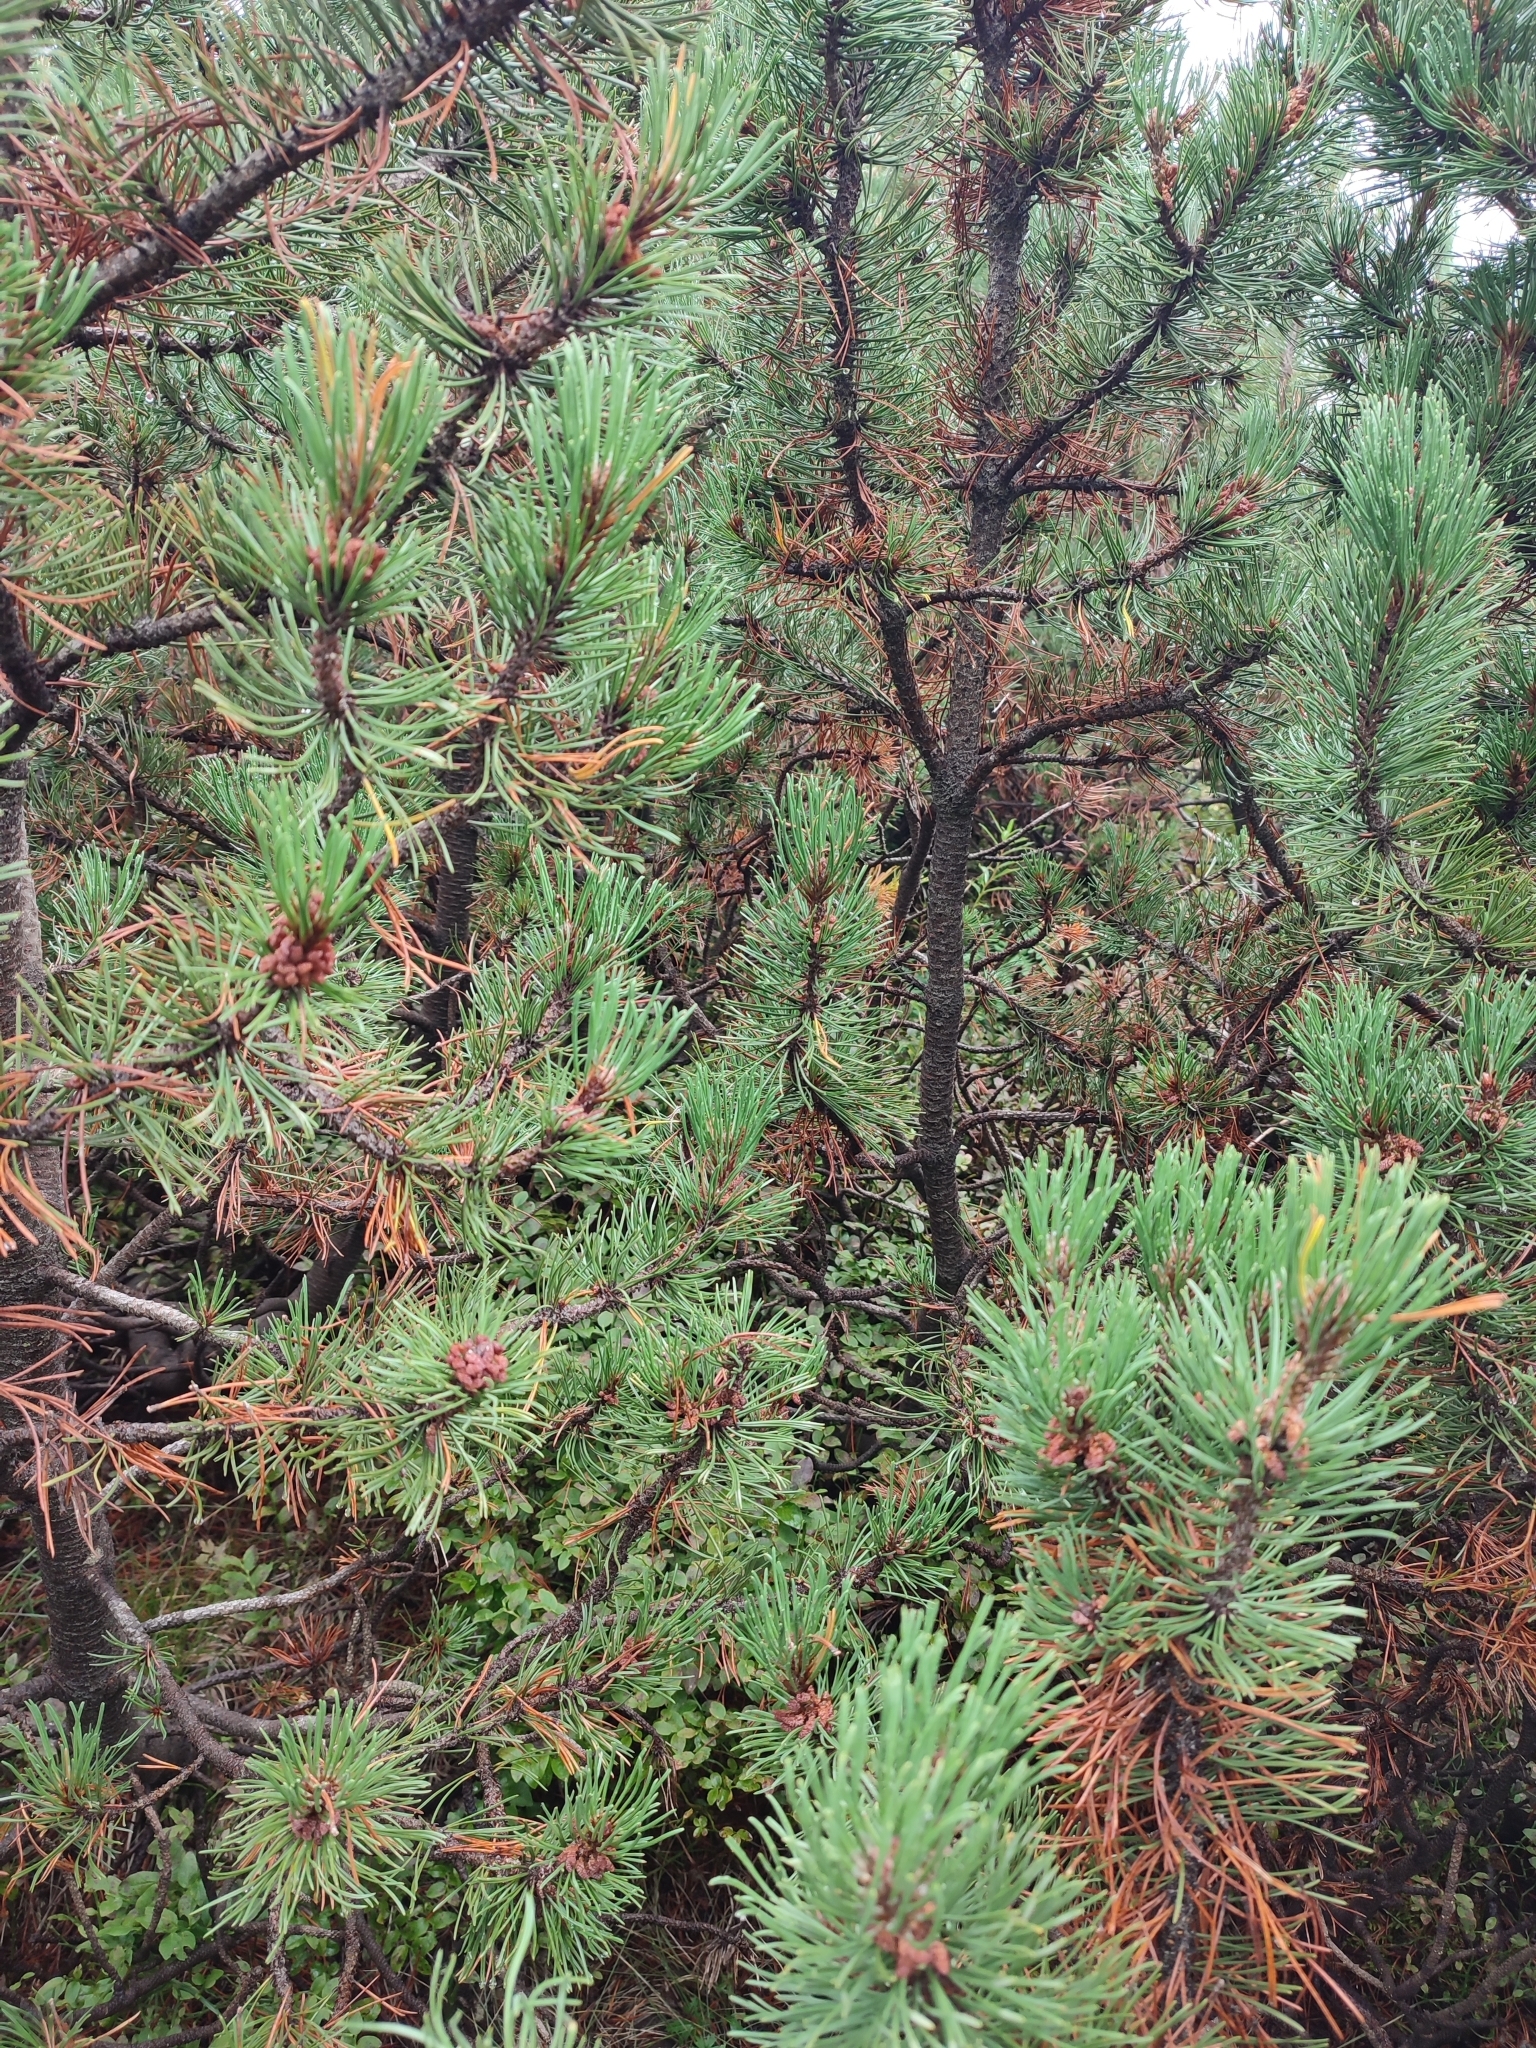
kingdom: Plantae
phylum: Tracheophyta
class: Pinopsida
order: Pinales
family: Pinaceae
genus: Pinus
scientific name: Pinus mugo
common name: Mugo pine
